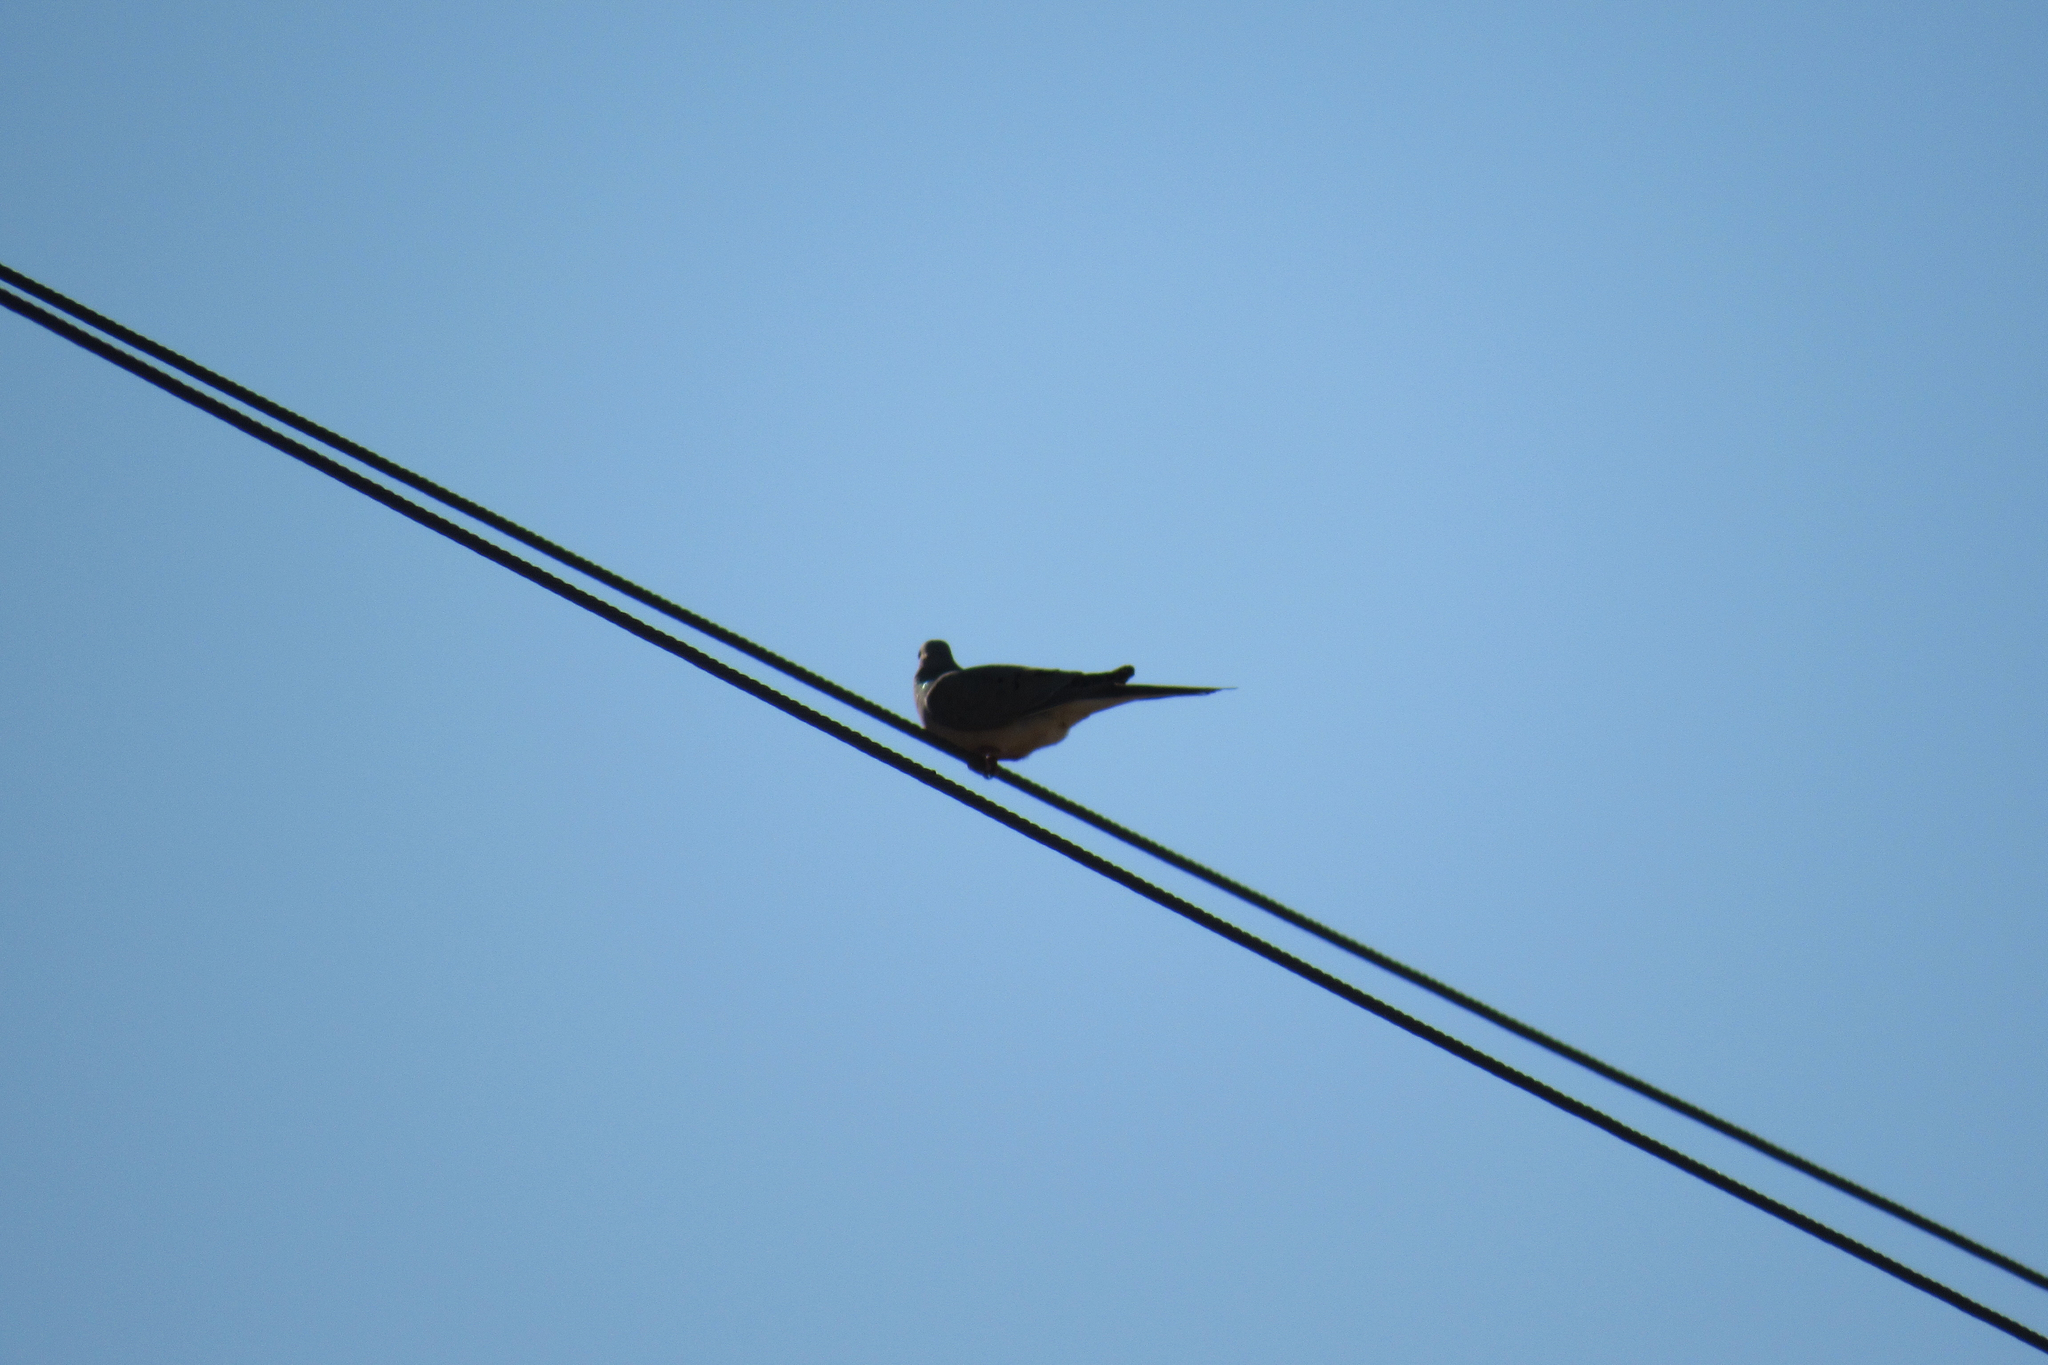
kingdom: Animalia
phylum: Chordata
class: Aves
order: Columbiformes
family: Columbidae
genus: Zenaida
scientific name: Zenaida macroura
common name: Mourning dove
